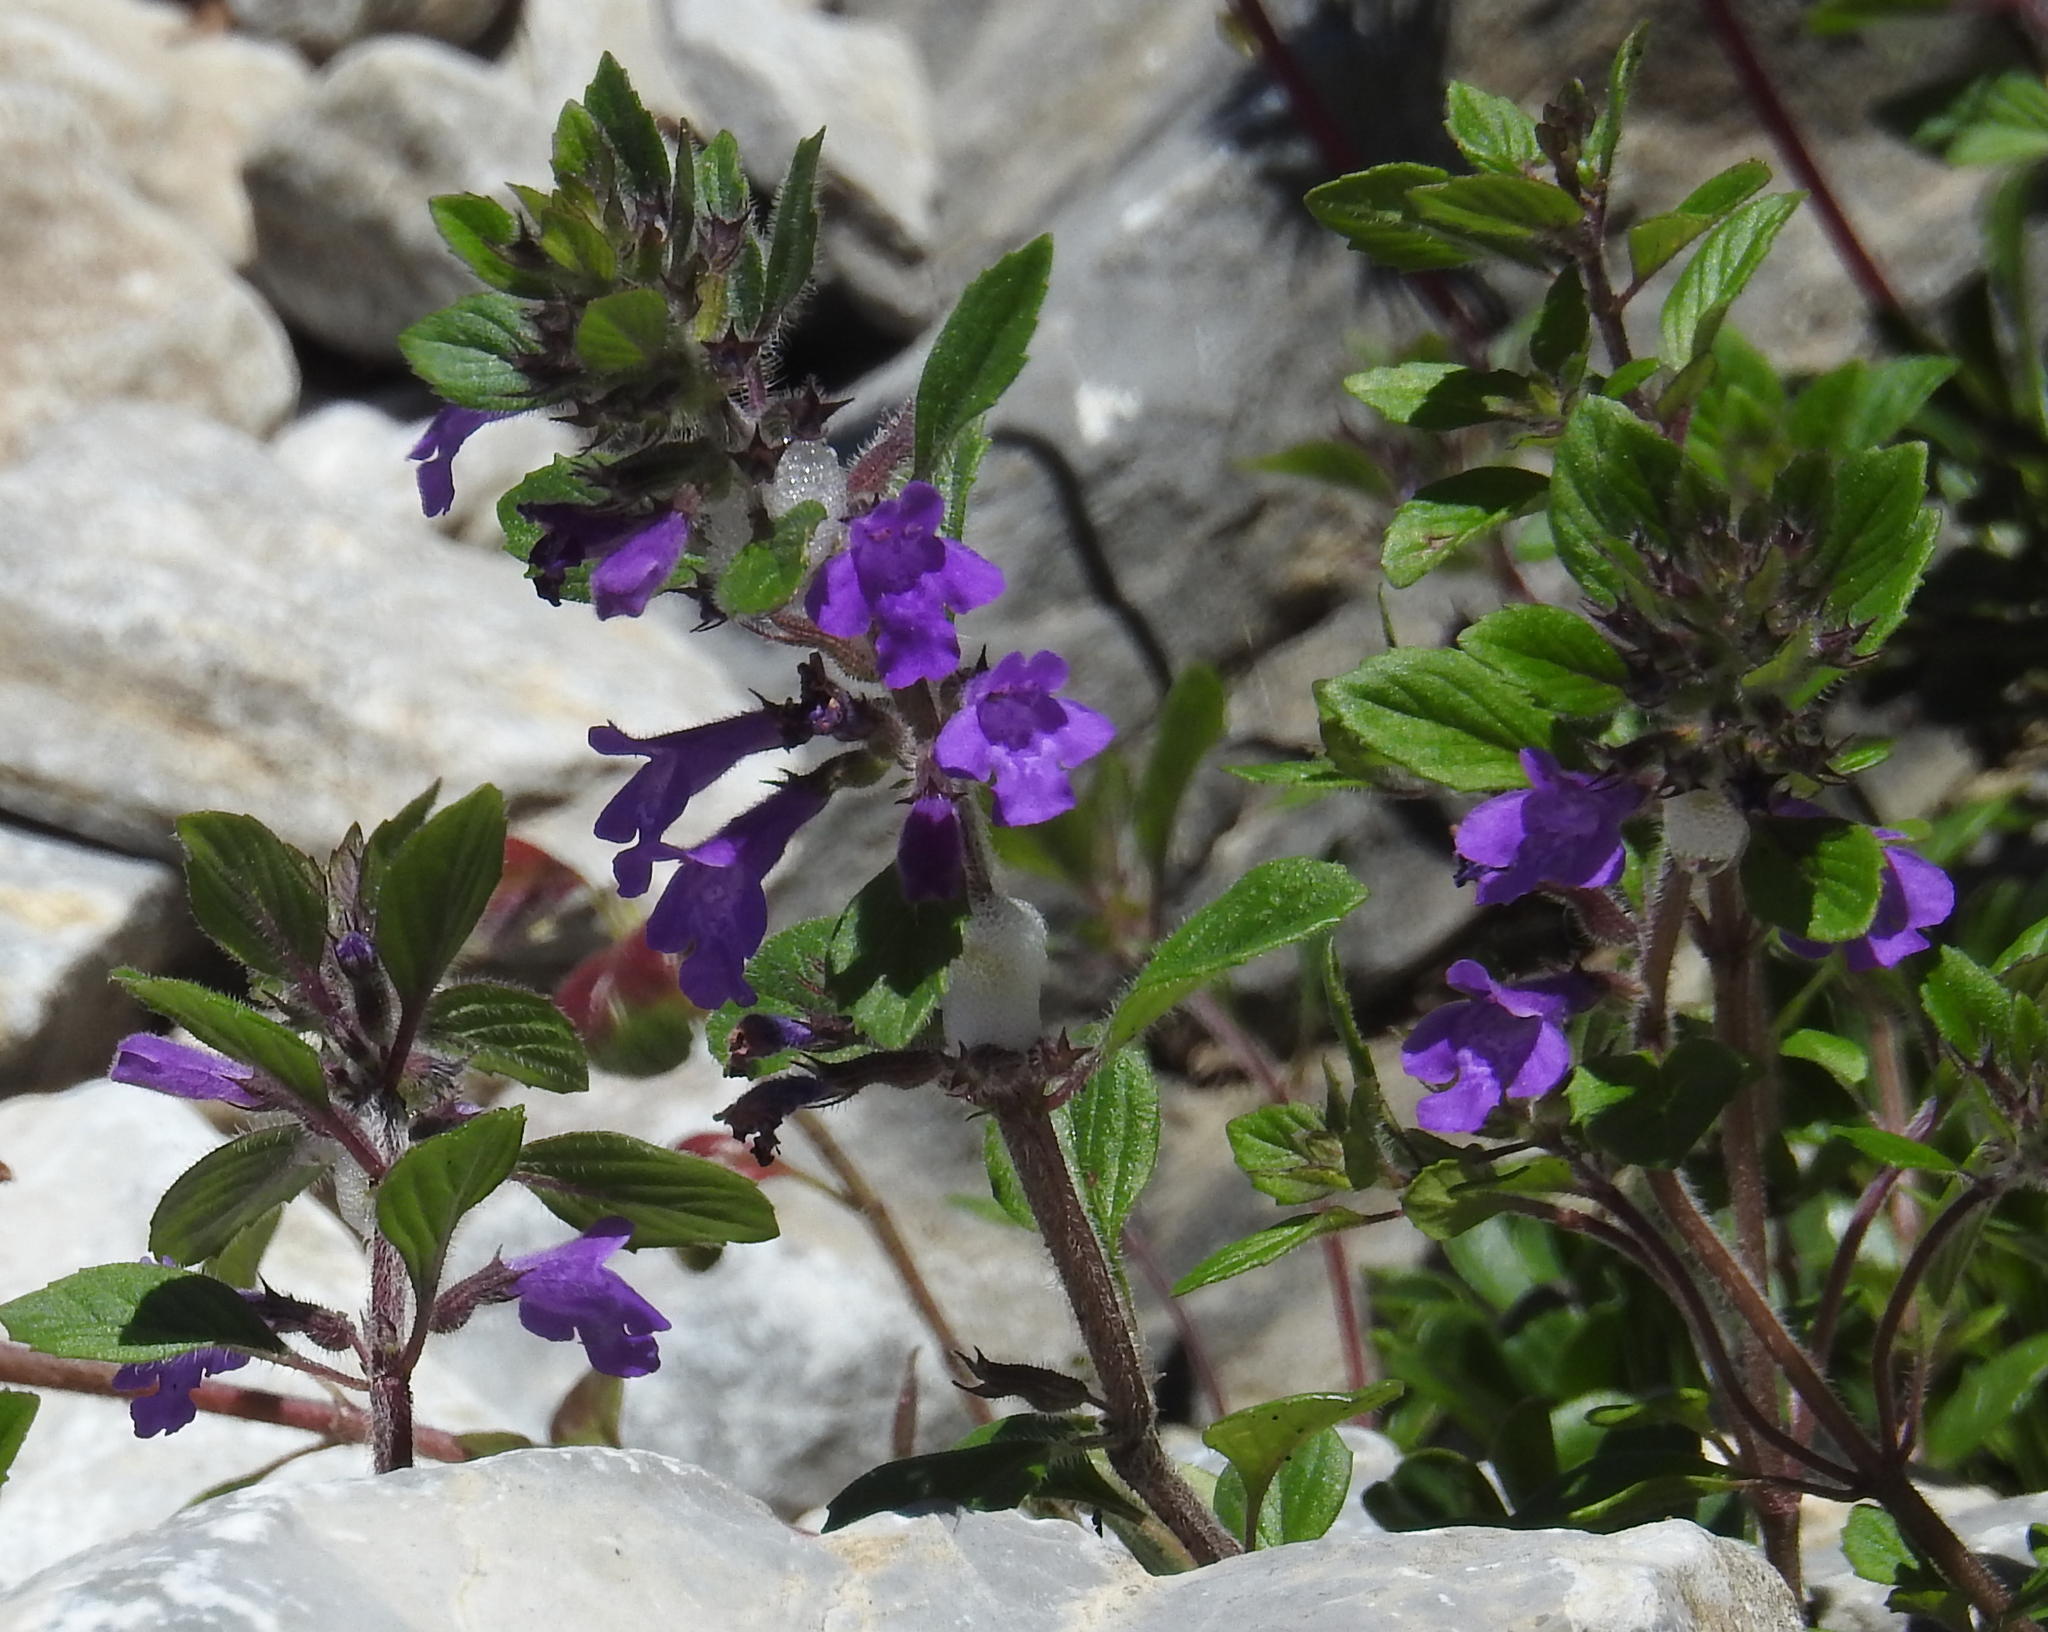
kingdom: Plantae
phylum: Tracheophyta
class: Magnoliopsida
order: Lamiales
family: Lamiaceae
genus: Clinopodium
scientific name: Clinopodium alpinum
